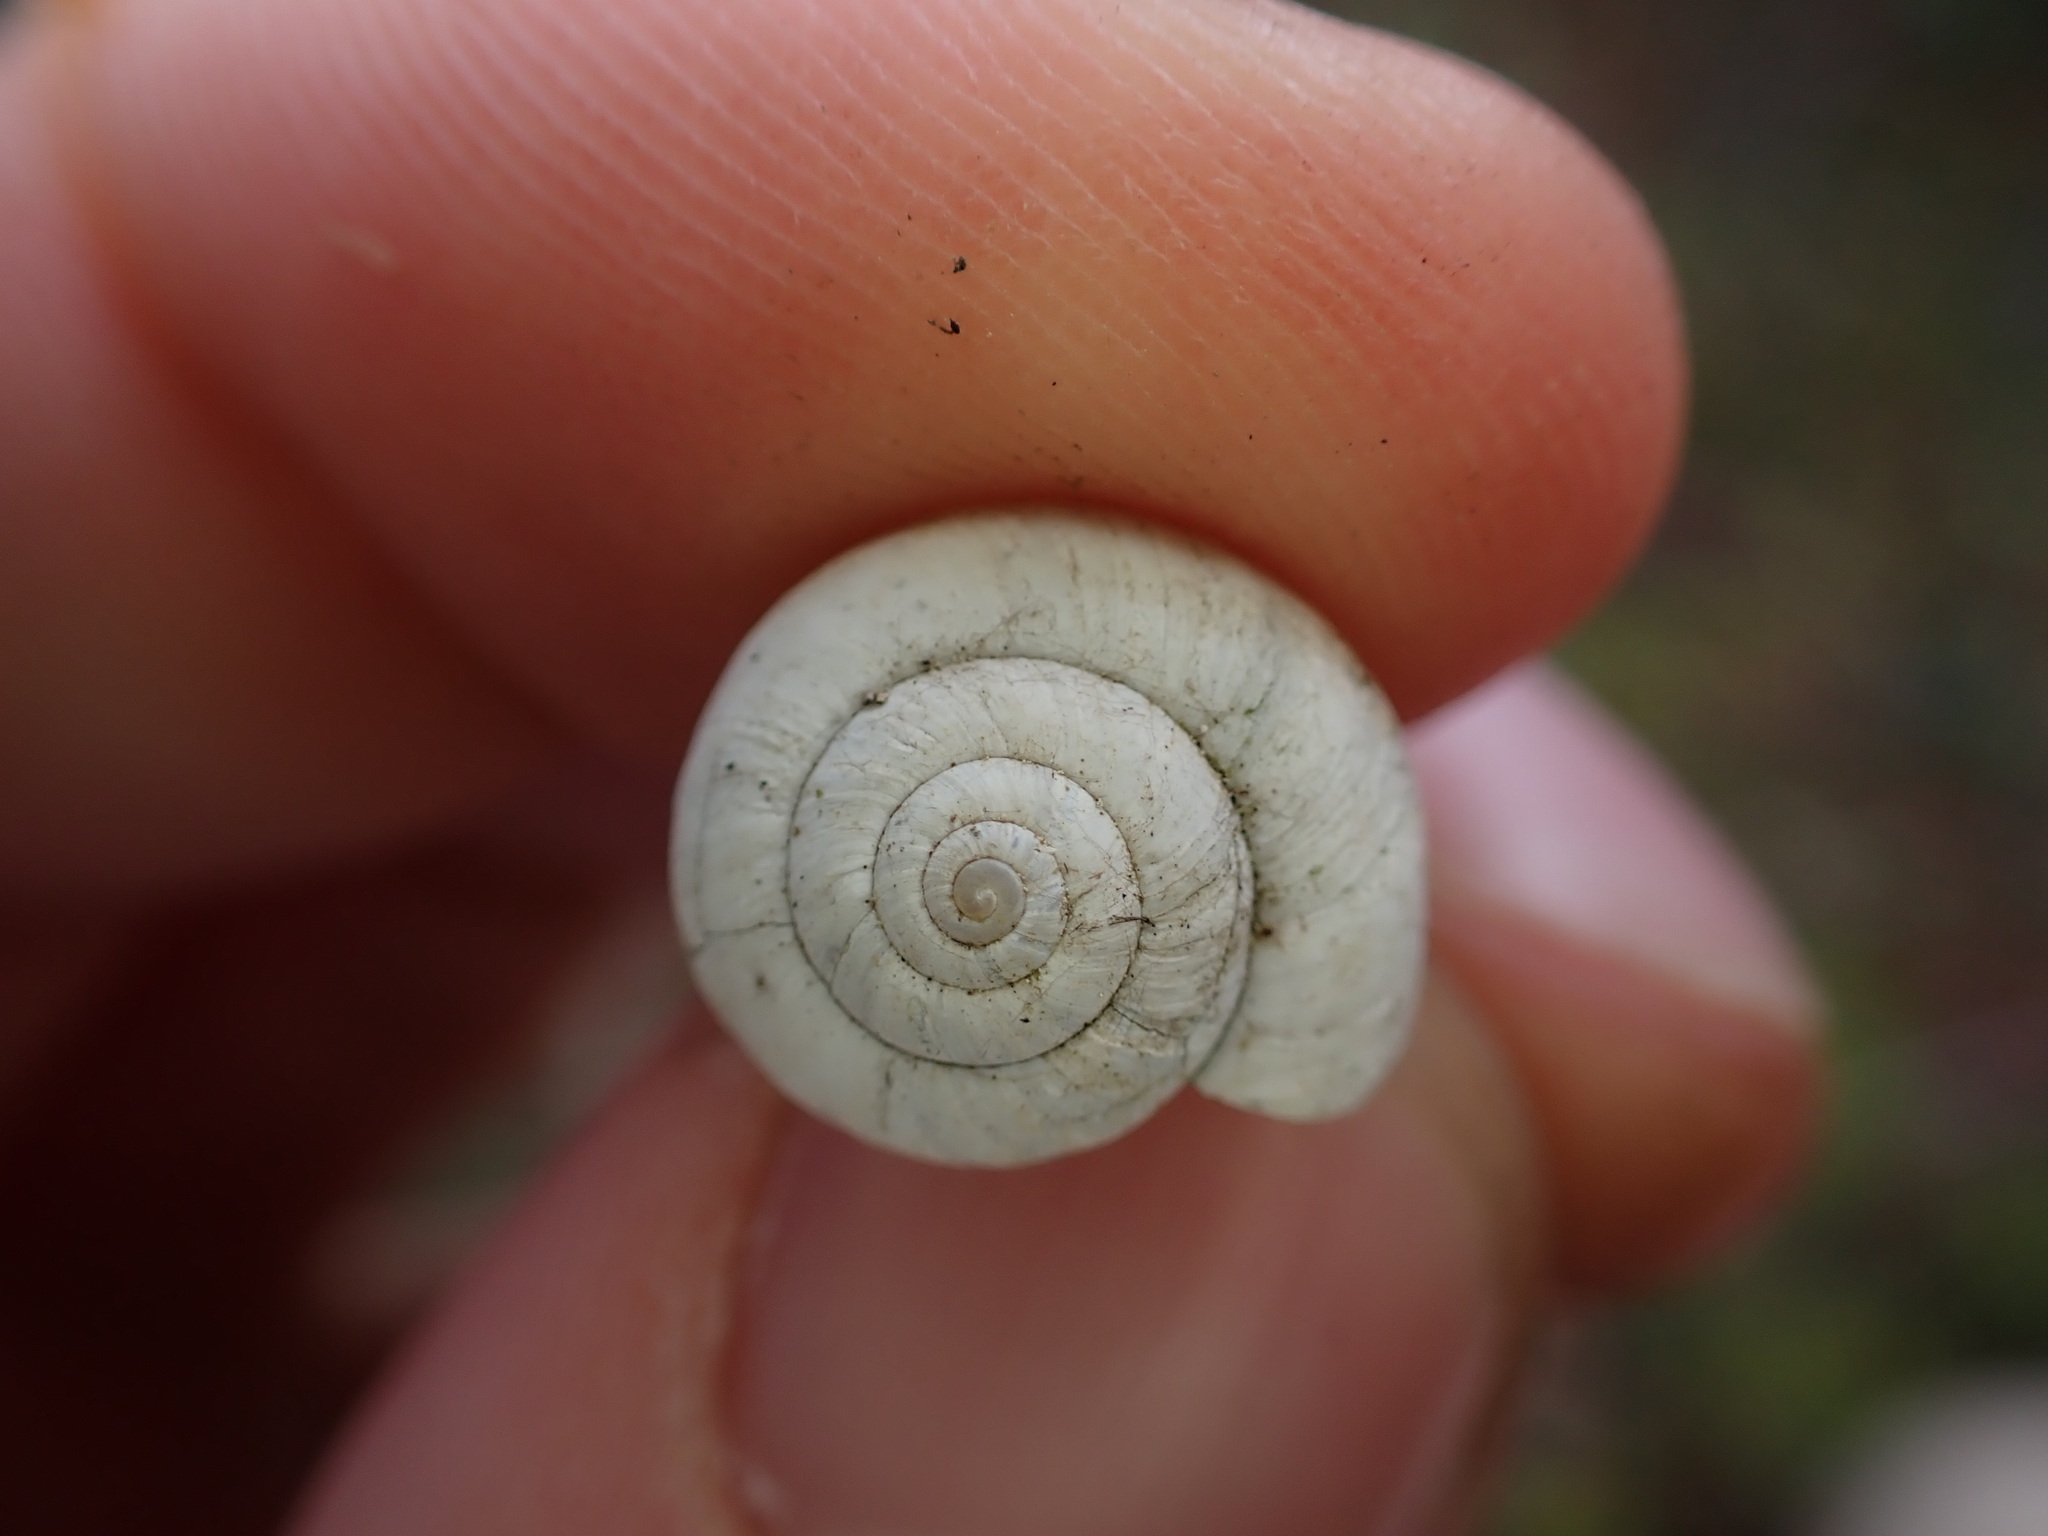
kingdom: Animalia
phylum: Mollusca
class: Gastropoda
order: Stylommatophora
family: Geomitridae
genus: Xeropicta
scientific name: Xeropicta derbentina
